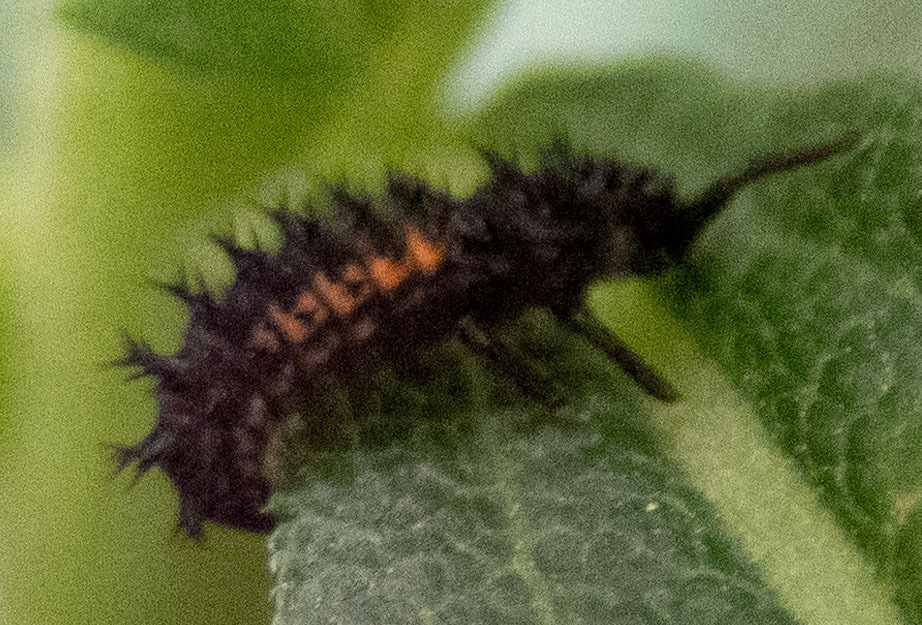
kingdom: Animalia
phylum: Arthropoda
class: Insecta
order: Coleoptera
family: Coccinellidae
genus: Harmonia
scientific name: Harmonia axyridis
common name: Harlequin ladybird
